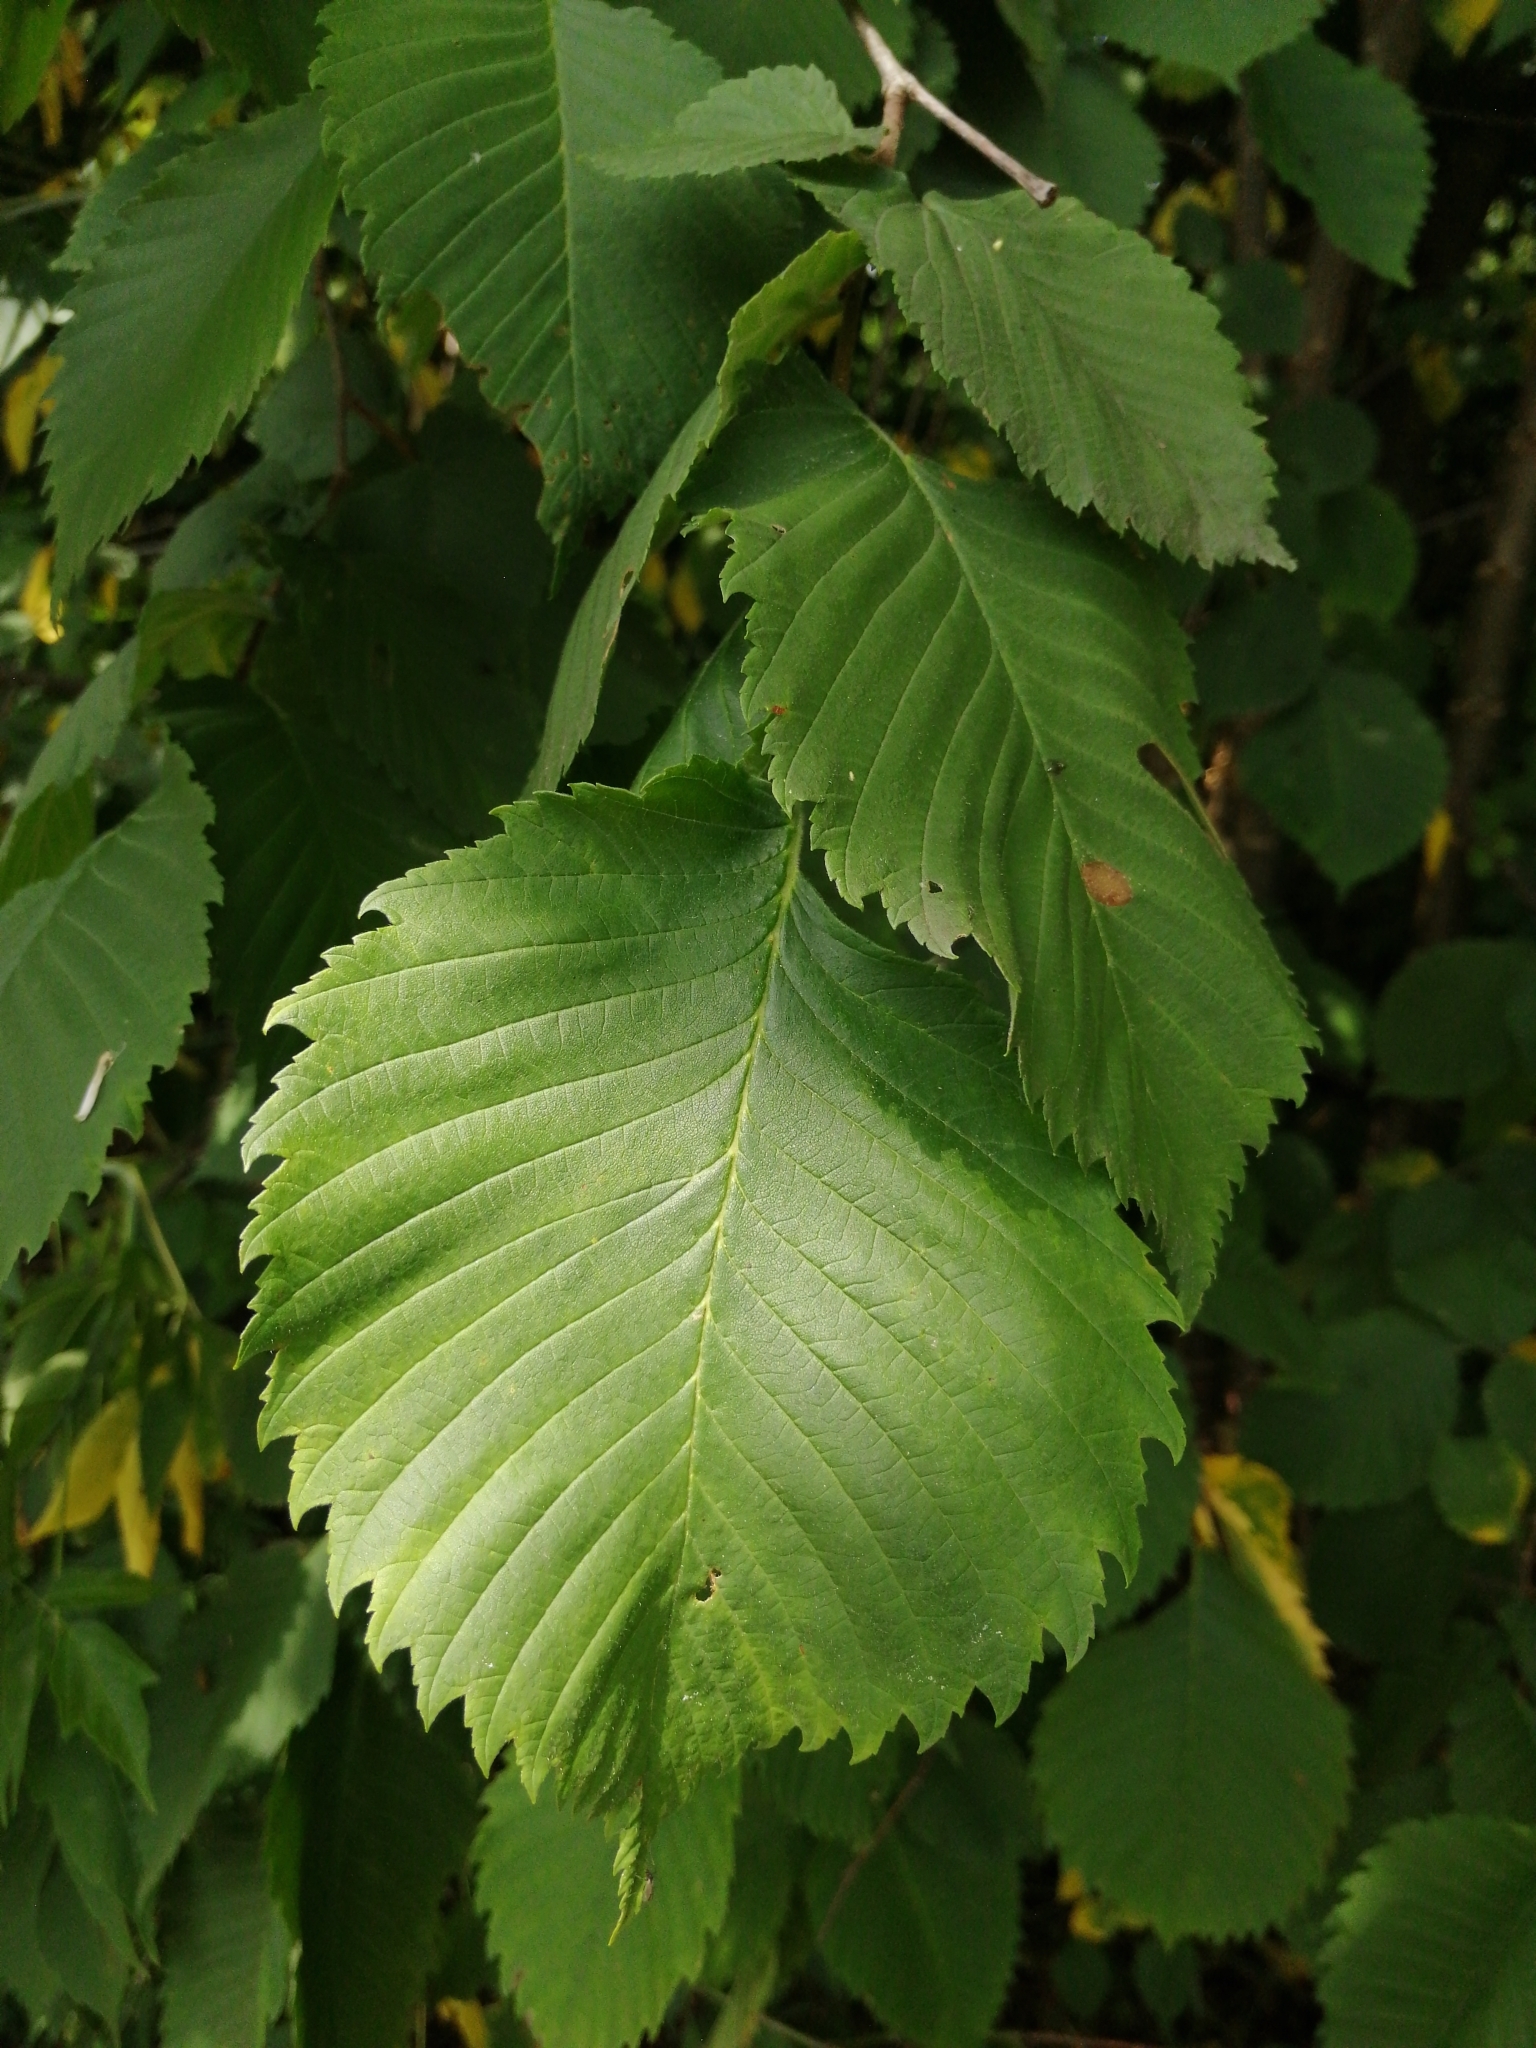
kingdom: Plantae
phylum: Tracheophyta
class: Magnoliopsida
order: Rosales
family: Ulmaceae
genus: Ulmus
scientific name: Ulmus glabra
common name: Wych elm
